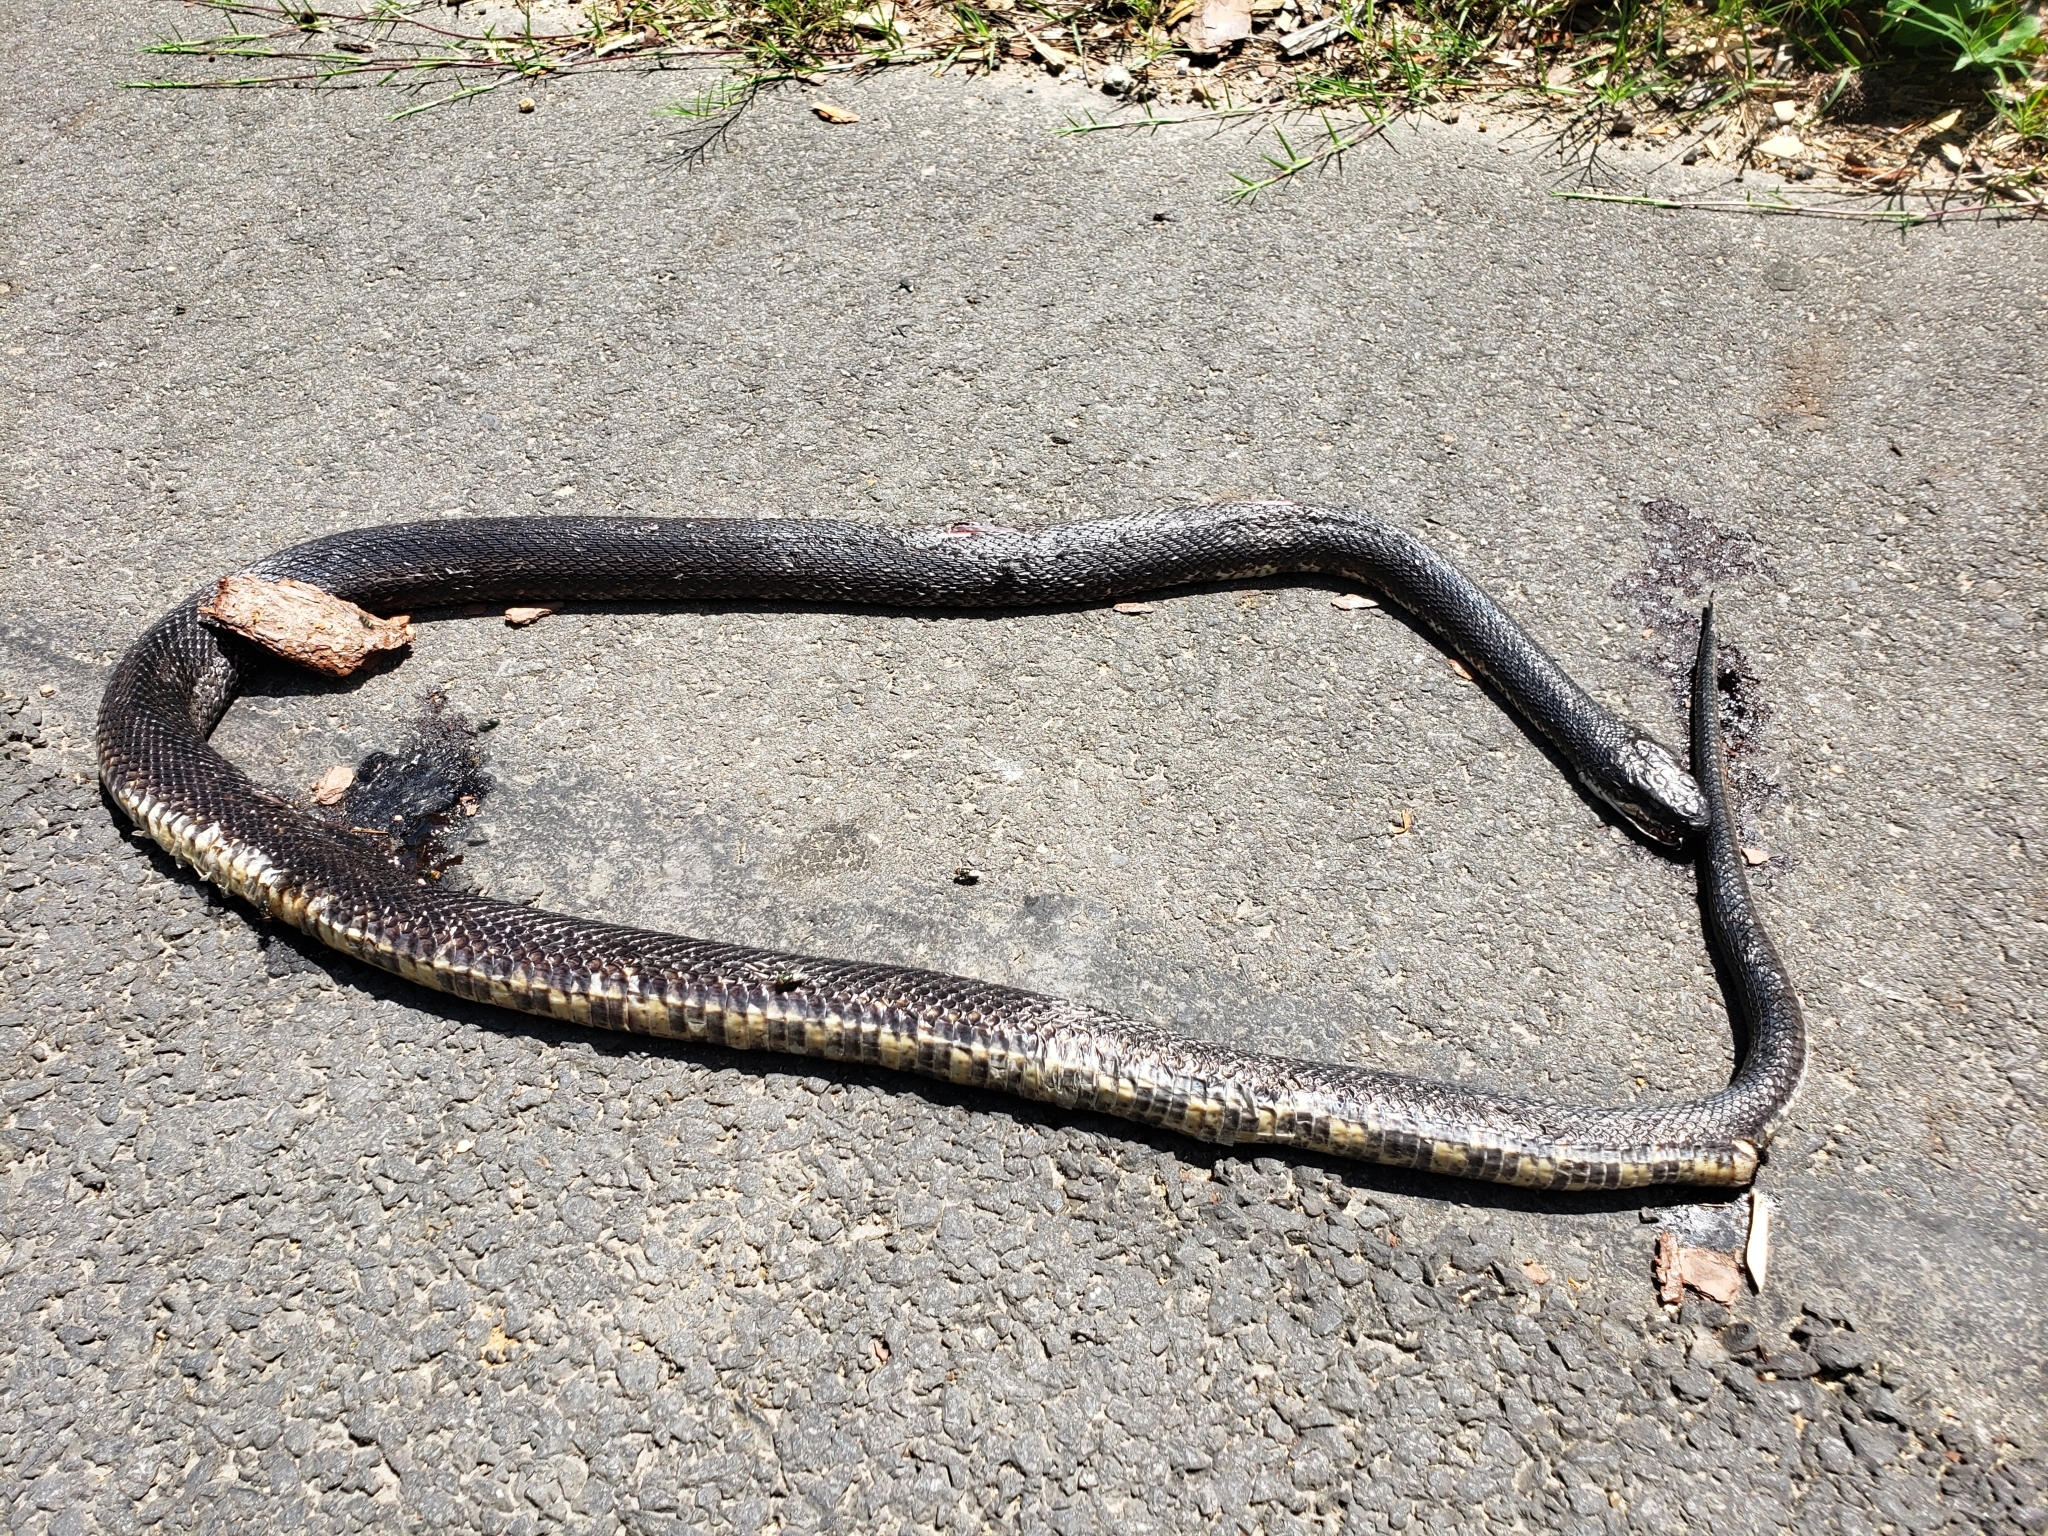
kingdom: Animalia
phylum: Chordata
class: Squamata
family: Colubridae
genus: Pantherophis
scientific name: Pantherophis obsoletus
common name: Black rat snake
